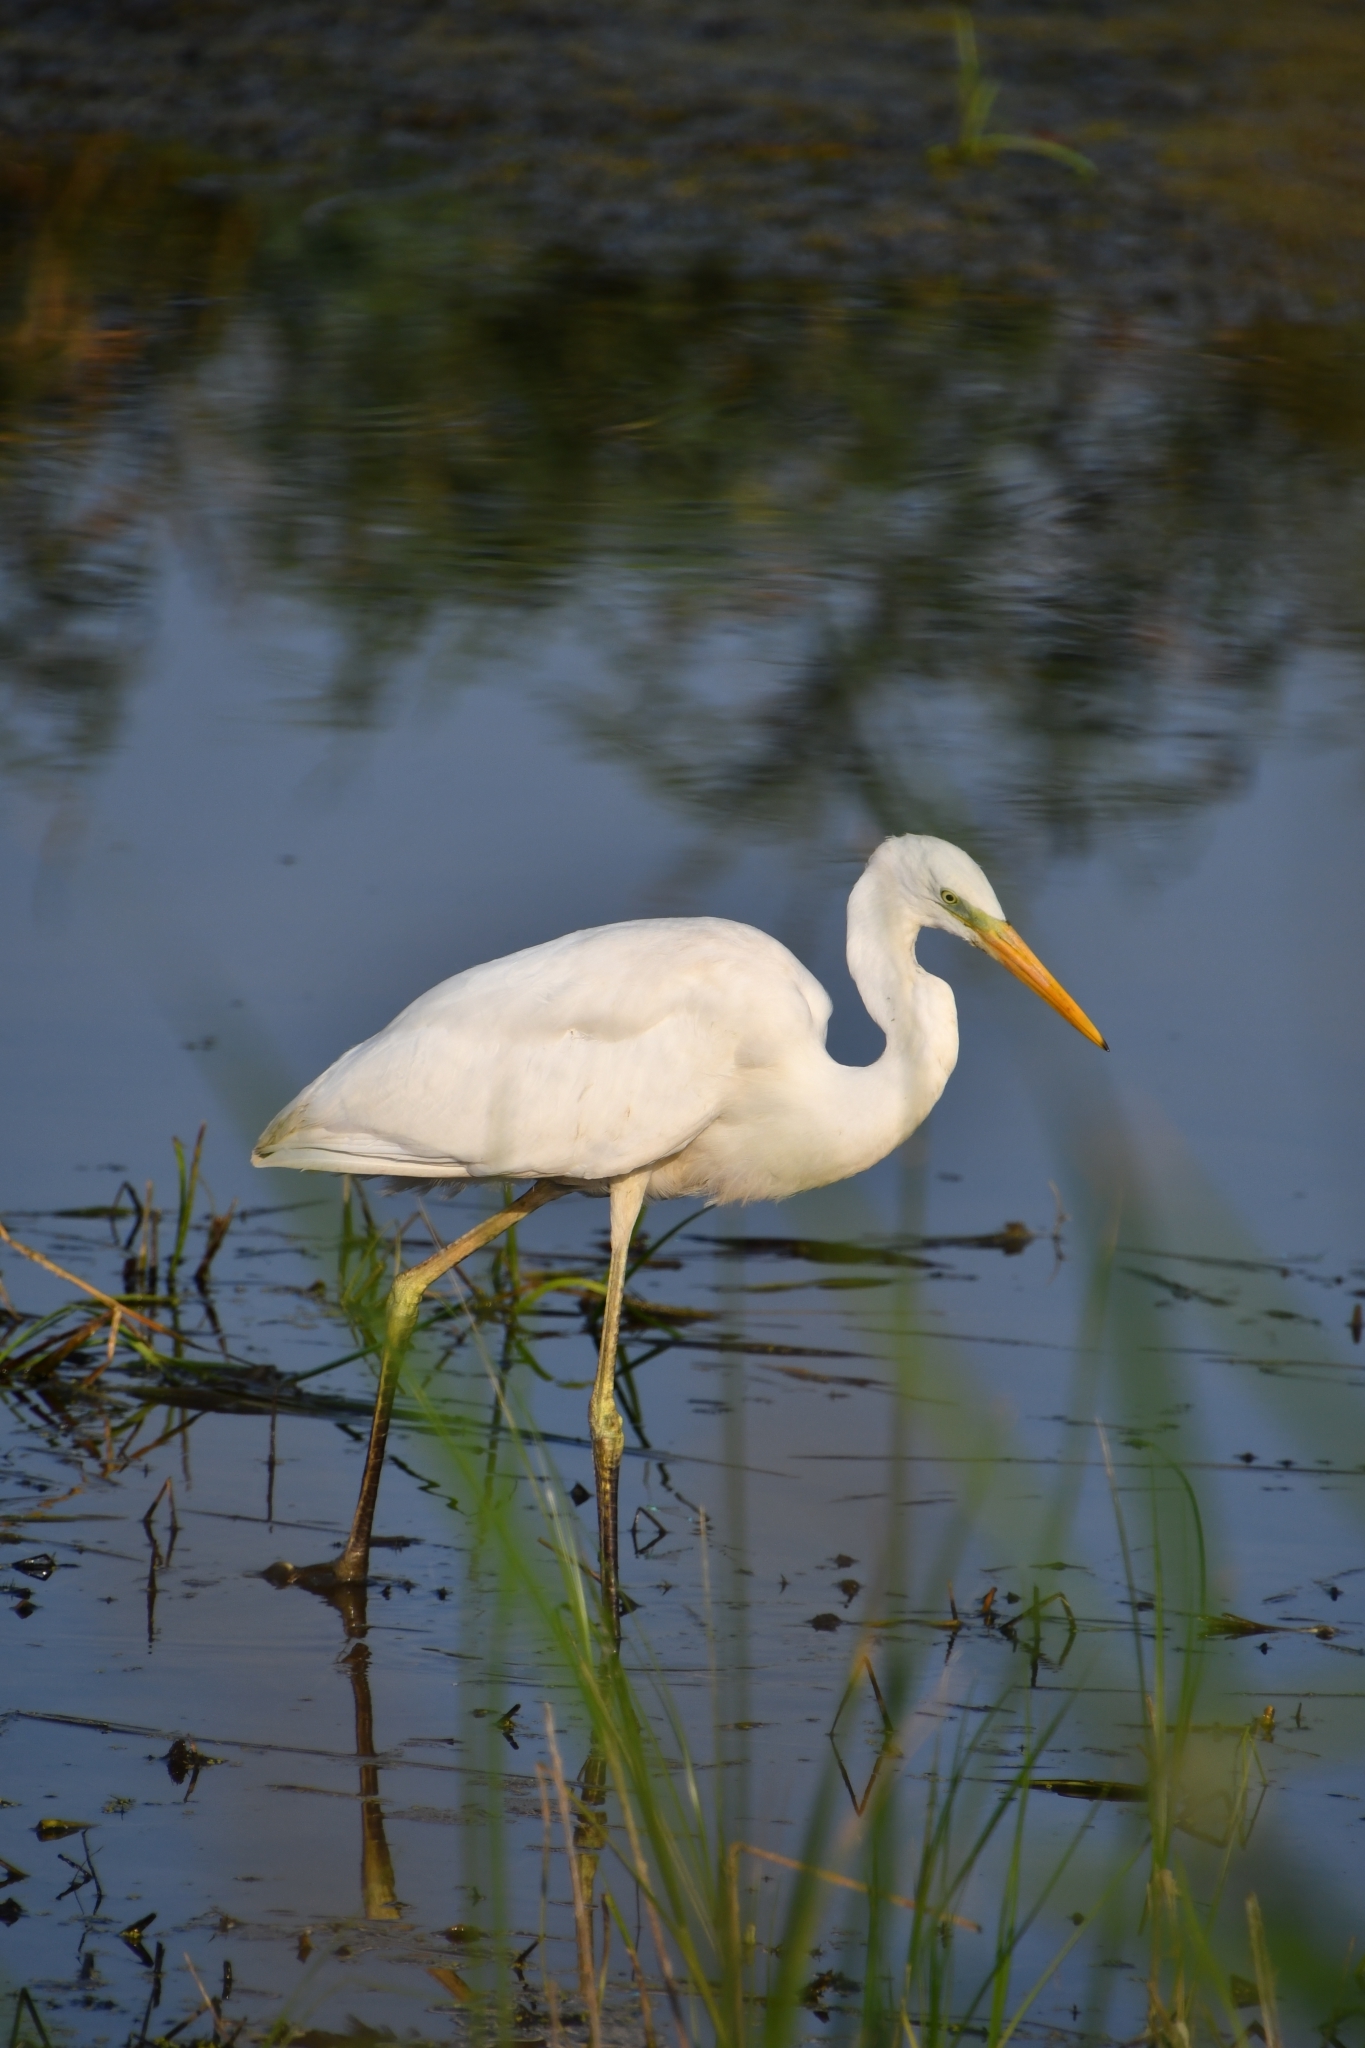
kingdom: Animalia
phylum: Chordata
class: Aves
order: Pelecaniformes
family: Ardeidae
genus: Ardea
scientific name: Ardea alba
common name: Great egret
